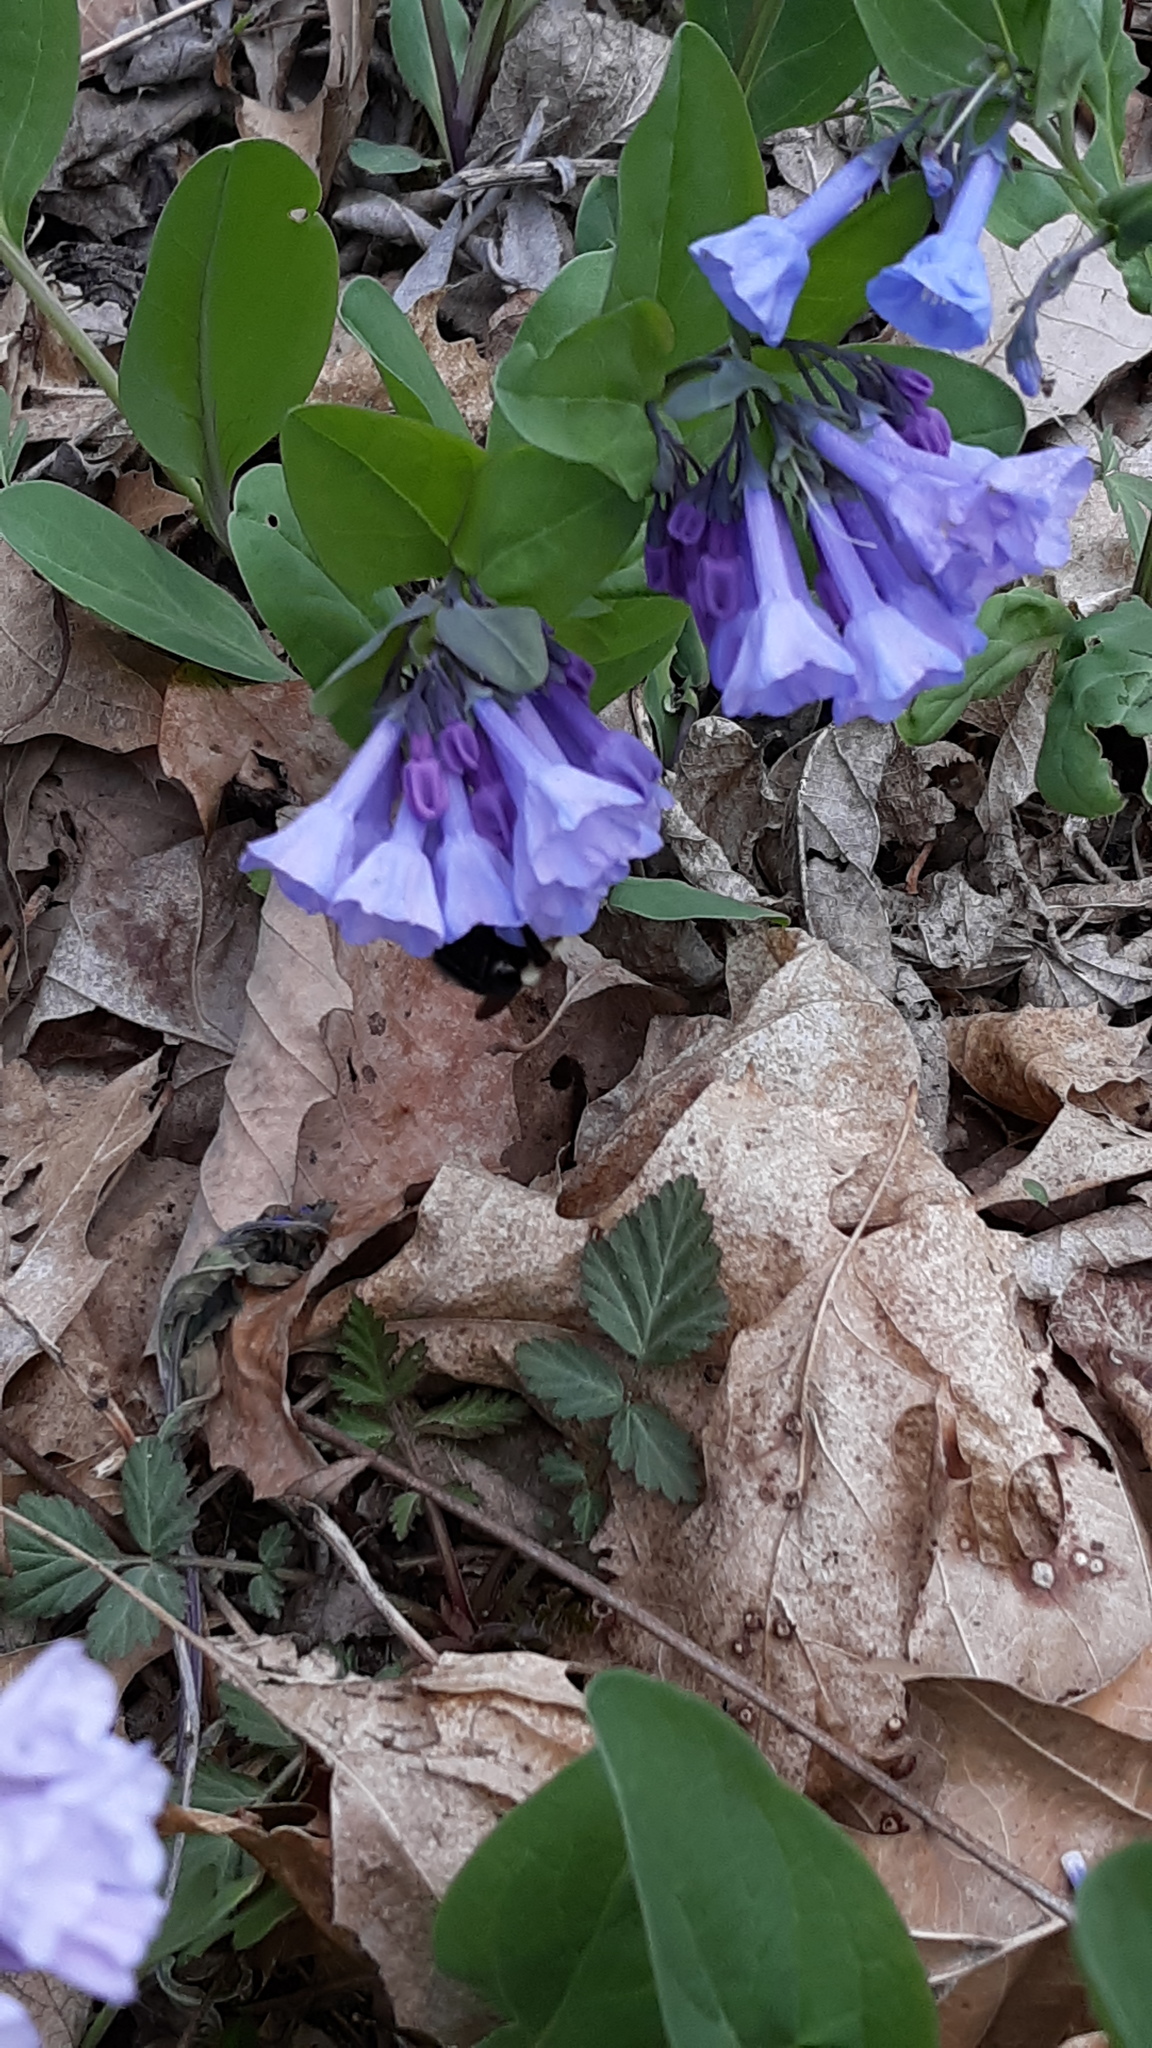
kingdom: Plantae
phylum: Tracheophyta
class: Magnoliopsida
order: Boraginales
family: Boraginaceae
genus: Mertensia
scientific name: Mertensia virginica
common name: Virginia bluebells
